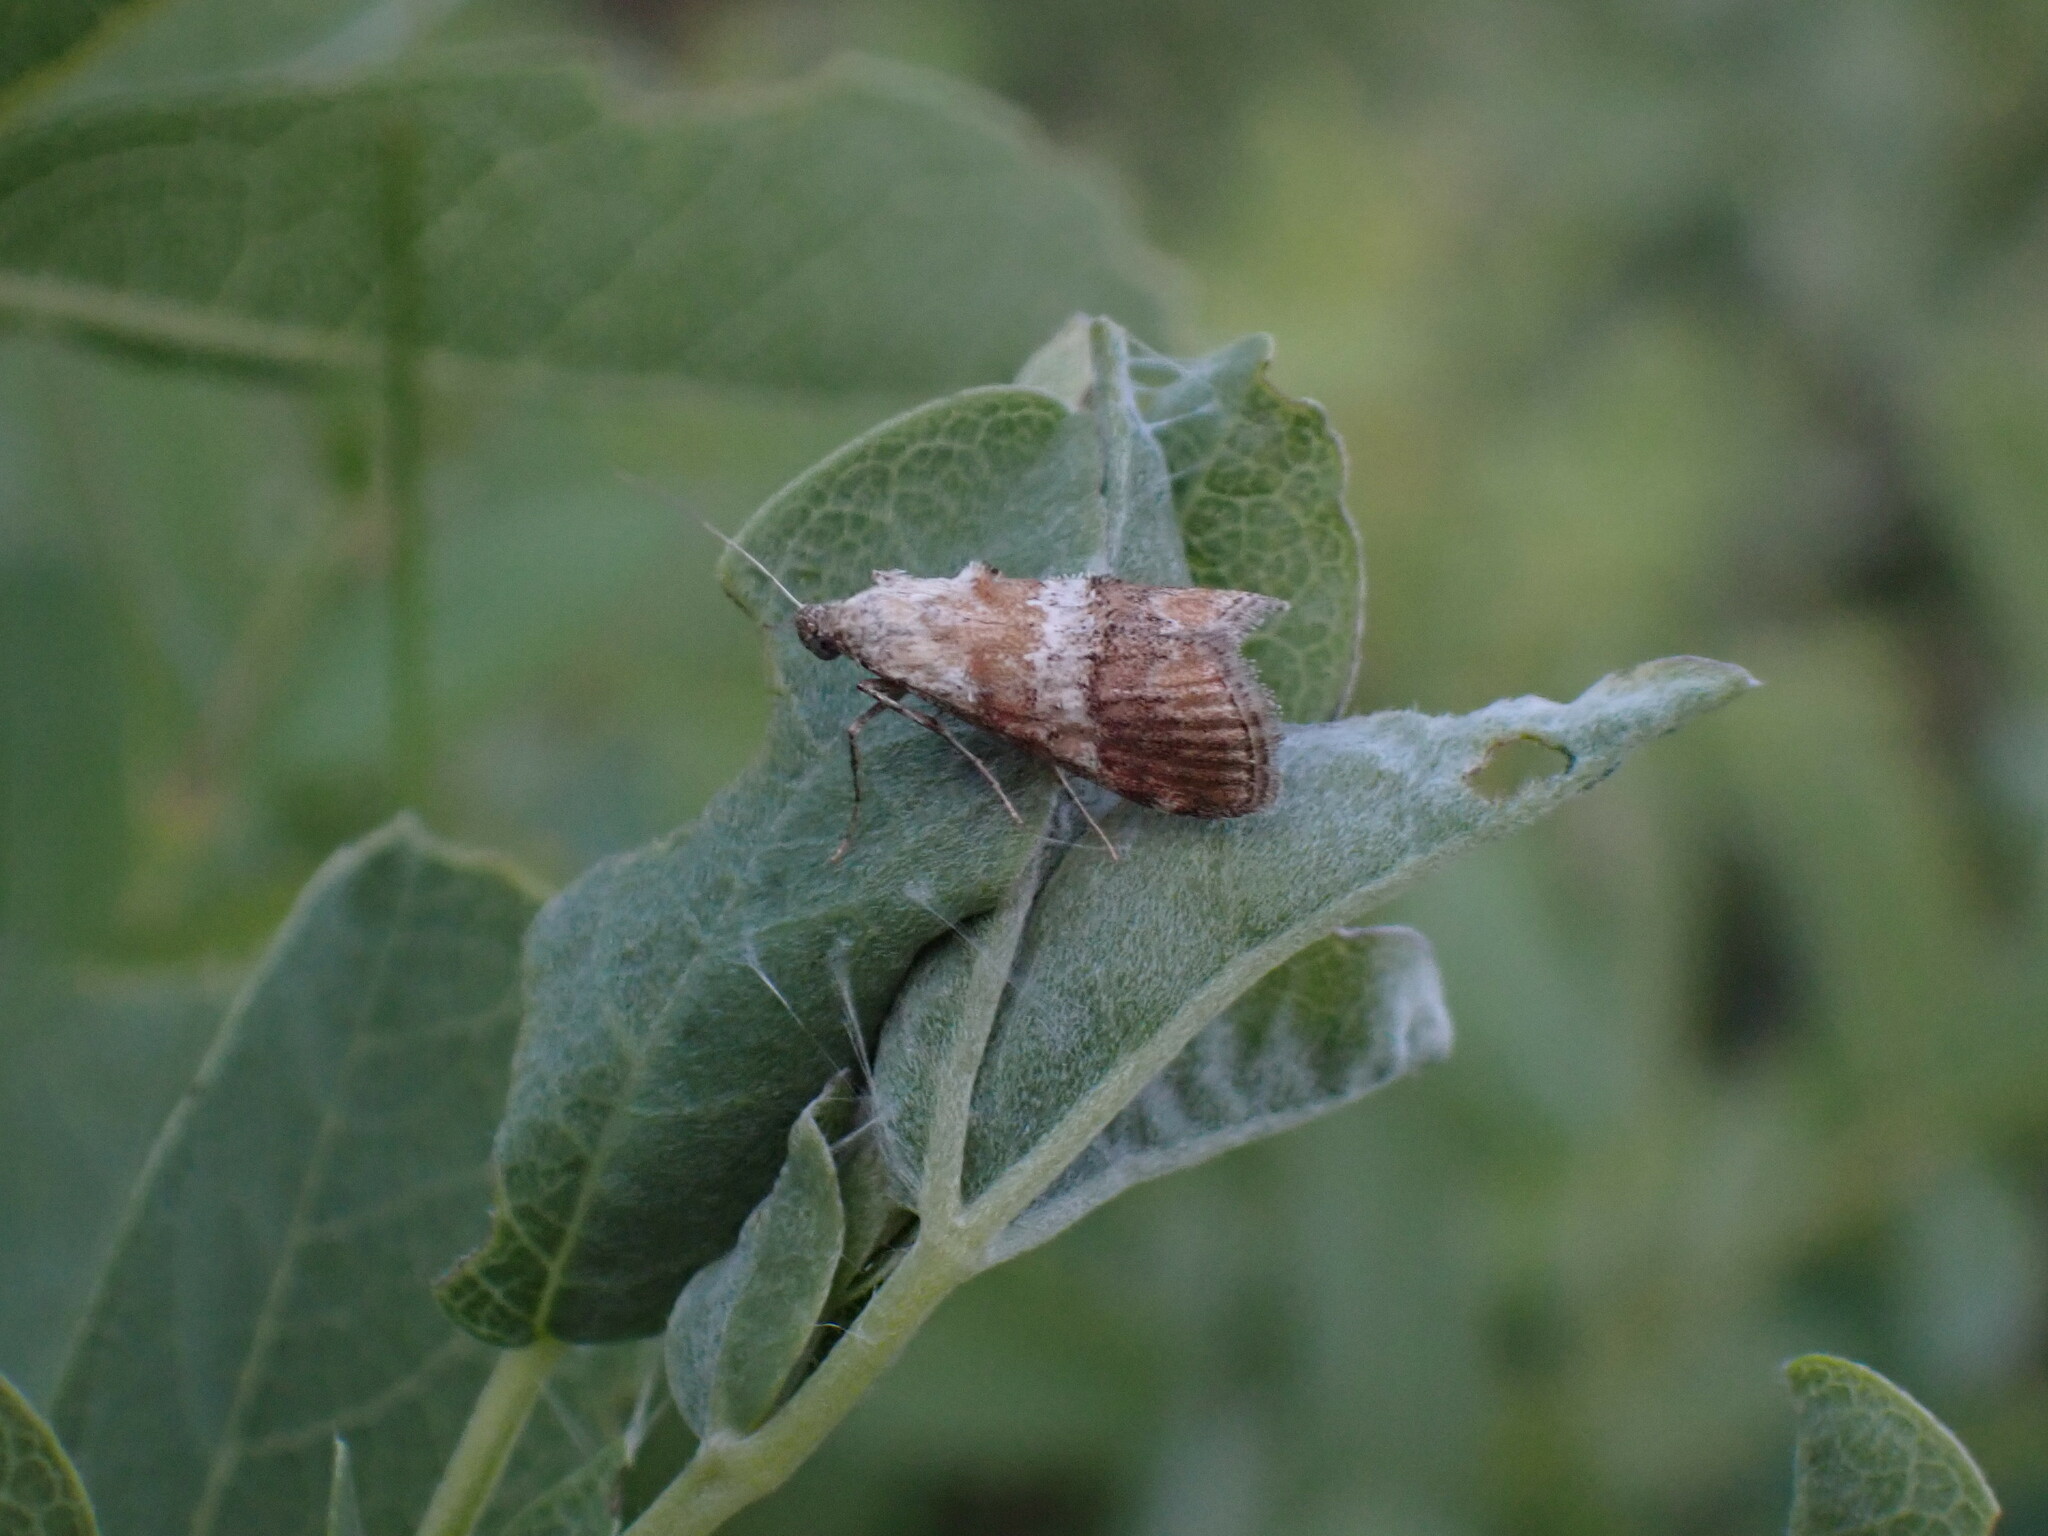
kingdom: Animalia
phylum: Arthropoda
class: Insecta
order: Lepidoptera
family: Pyralidae
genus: Pococera
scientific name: Pococera baptisiella
